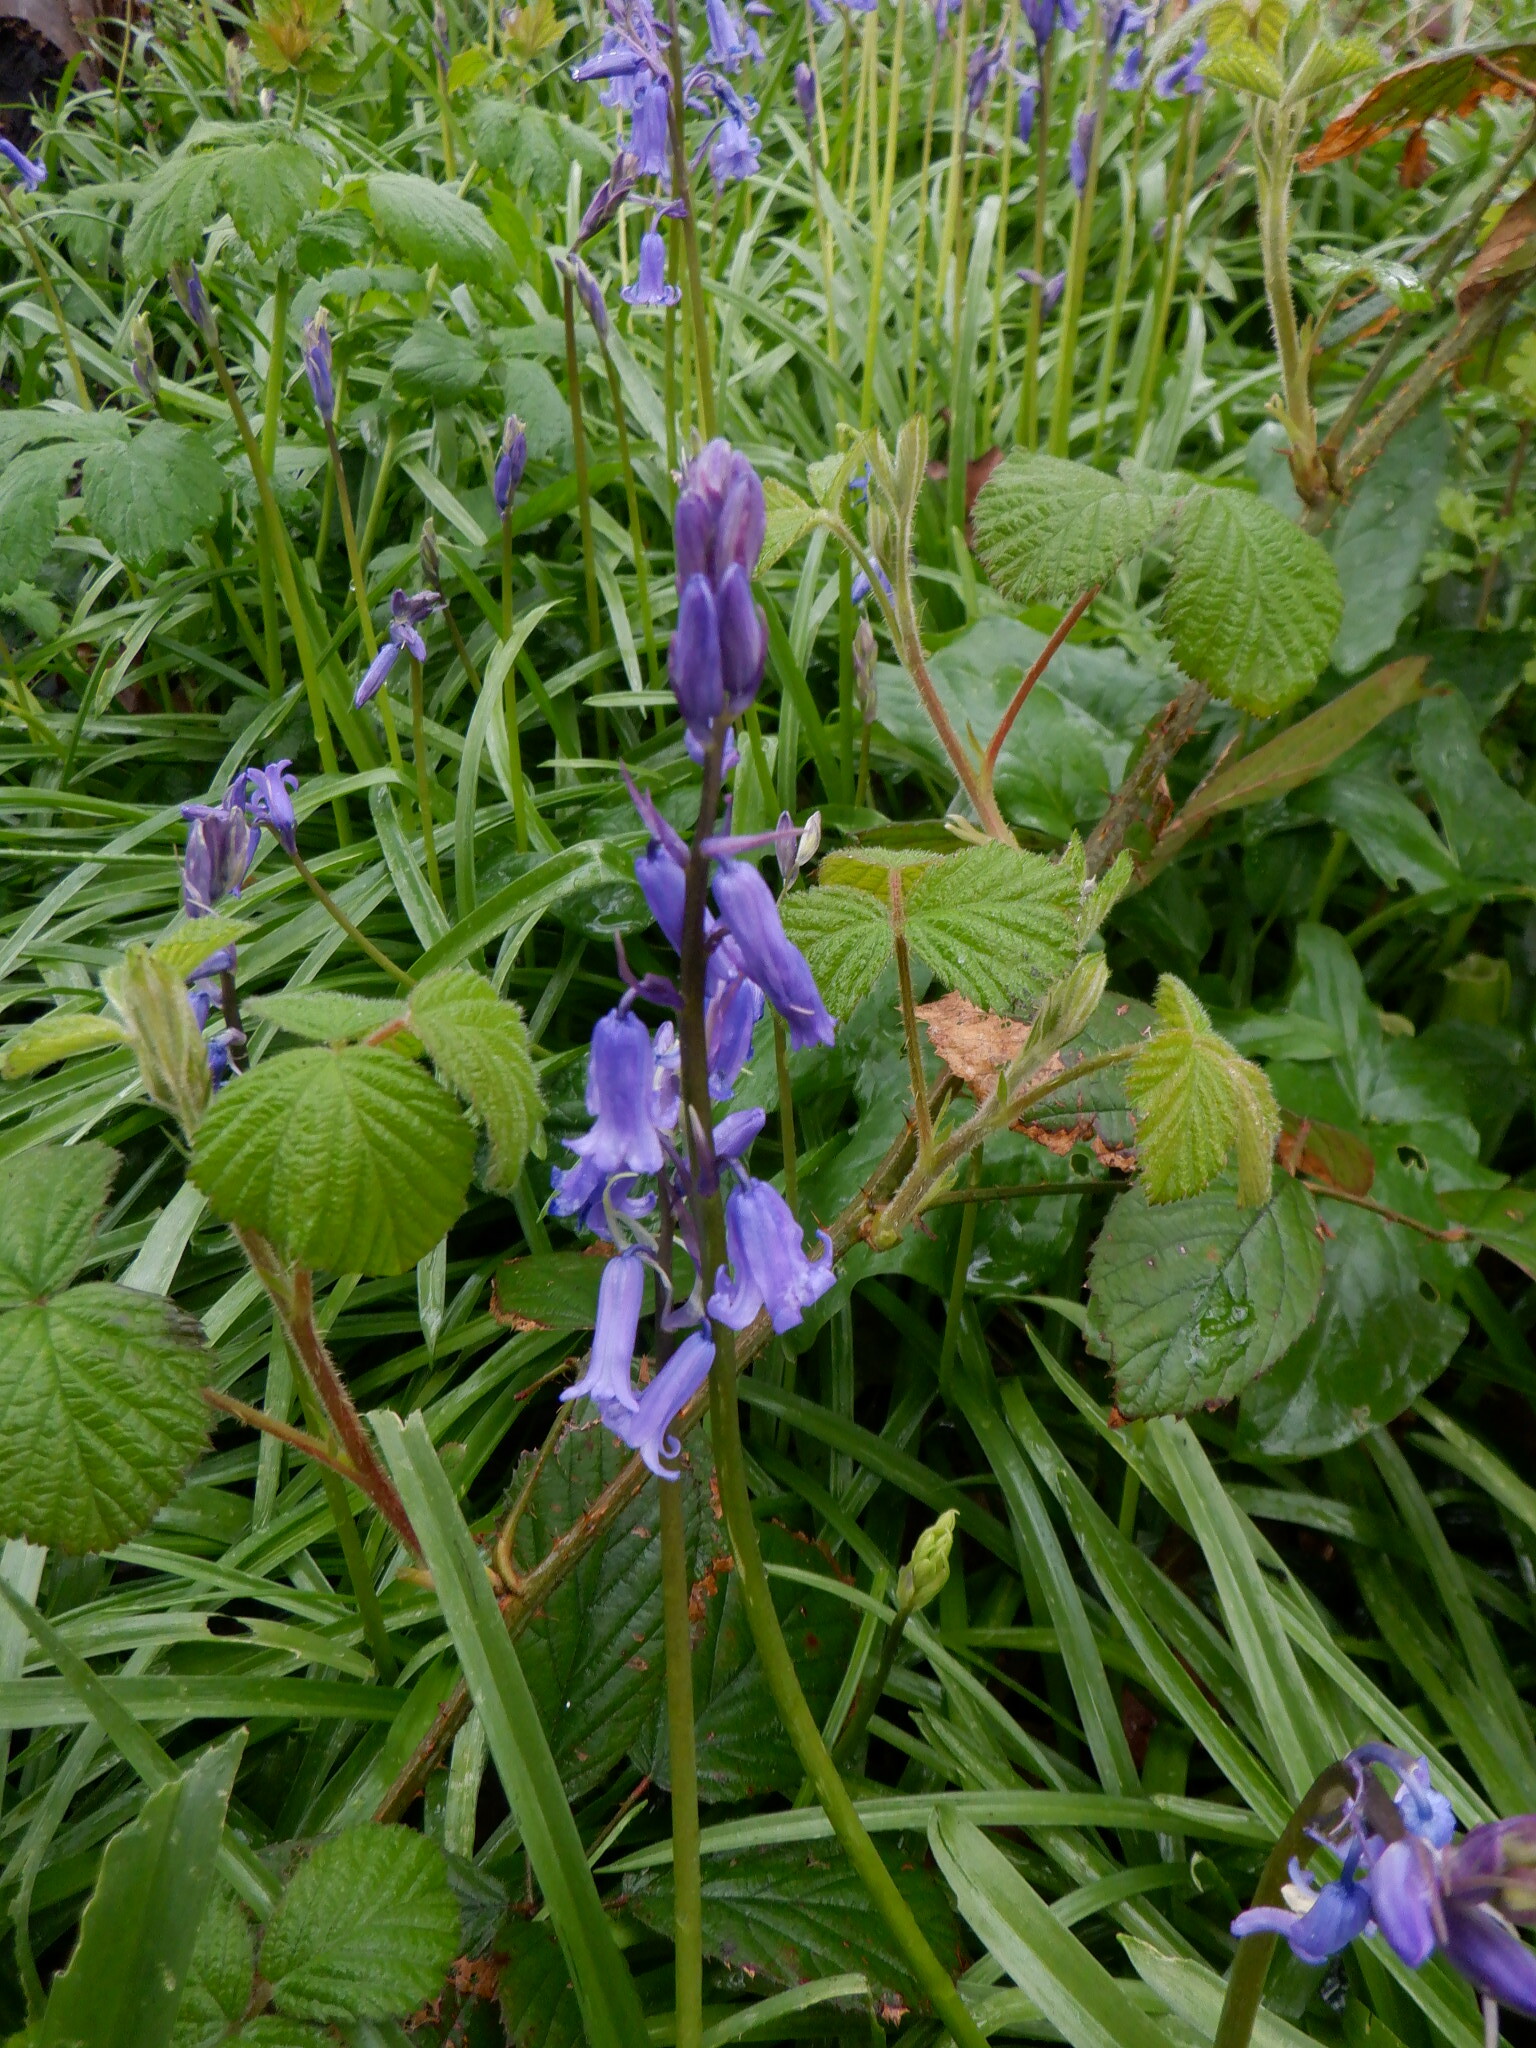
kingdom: Plantae
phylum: Tracheophyta
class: Liliopsida
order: Asparagales
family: Asparagaceae
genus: Hyacinthoides
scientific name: Hyacinthoides massartiana
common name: Hyacinthoides
